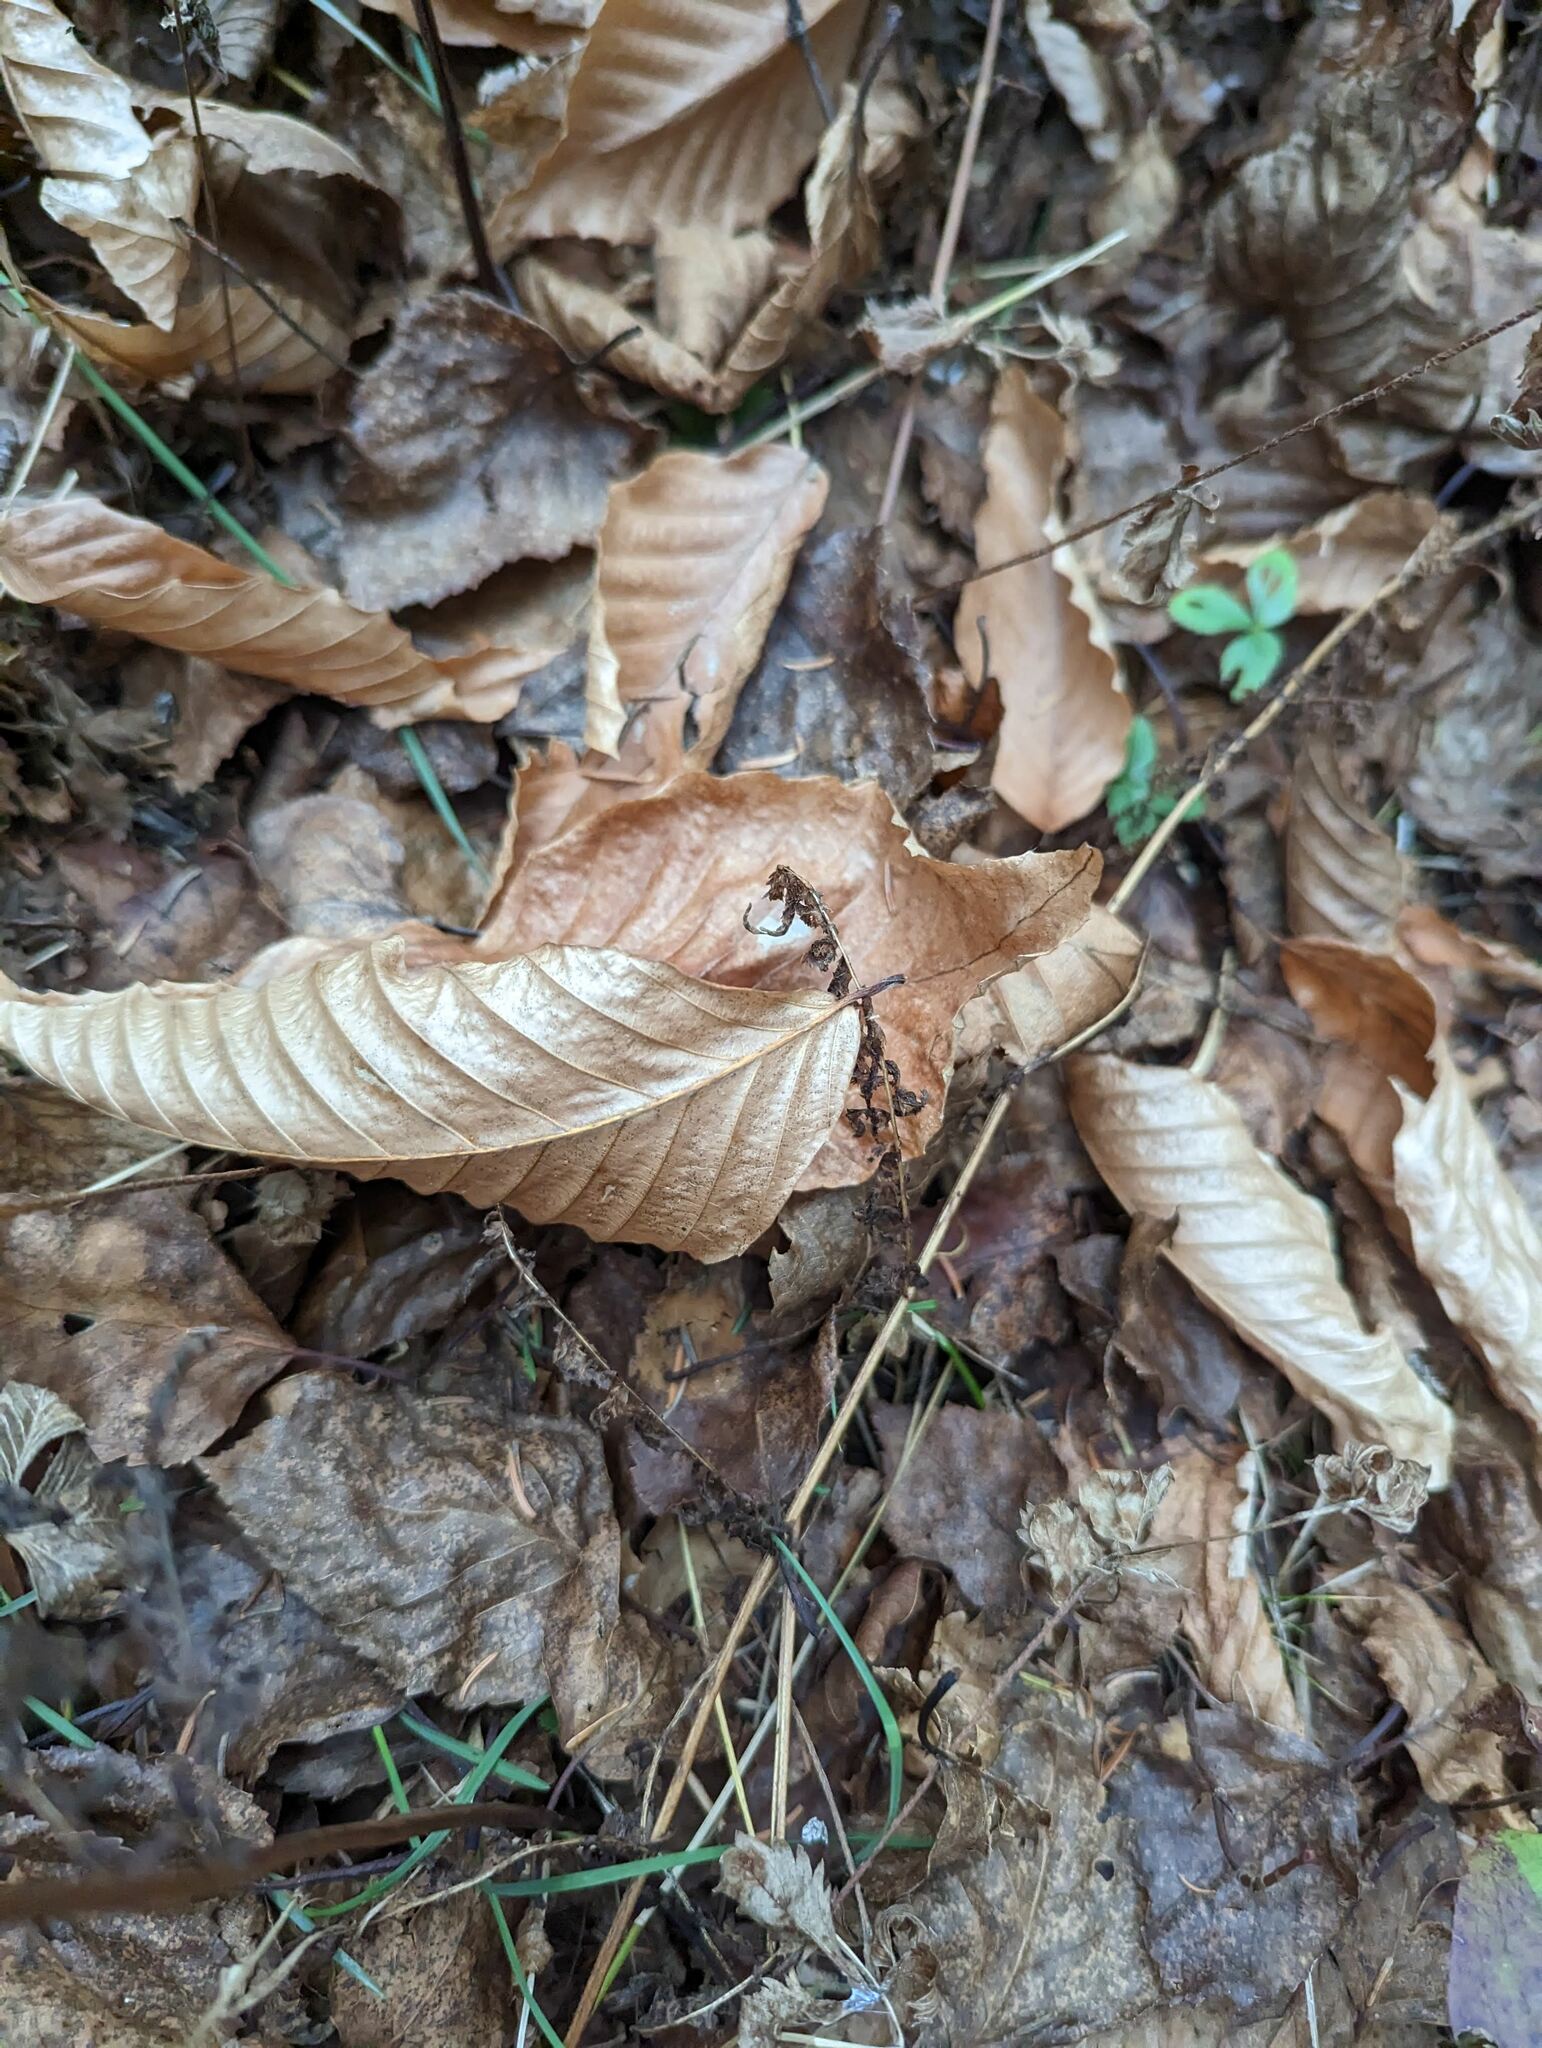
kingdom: Plantae
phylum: Tracheophyta
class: Magnoliopsida
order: Fagales
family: Fagaceae
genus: Fagus
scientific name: Fagus grandifolia
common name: American beech
